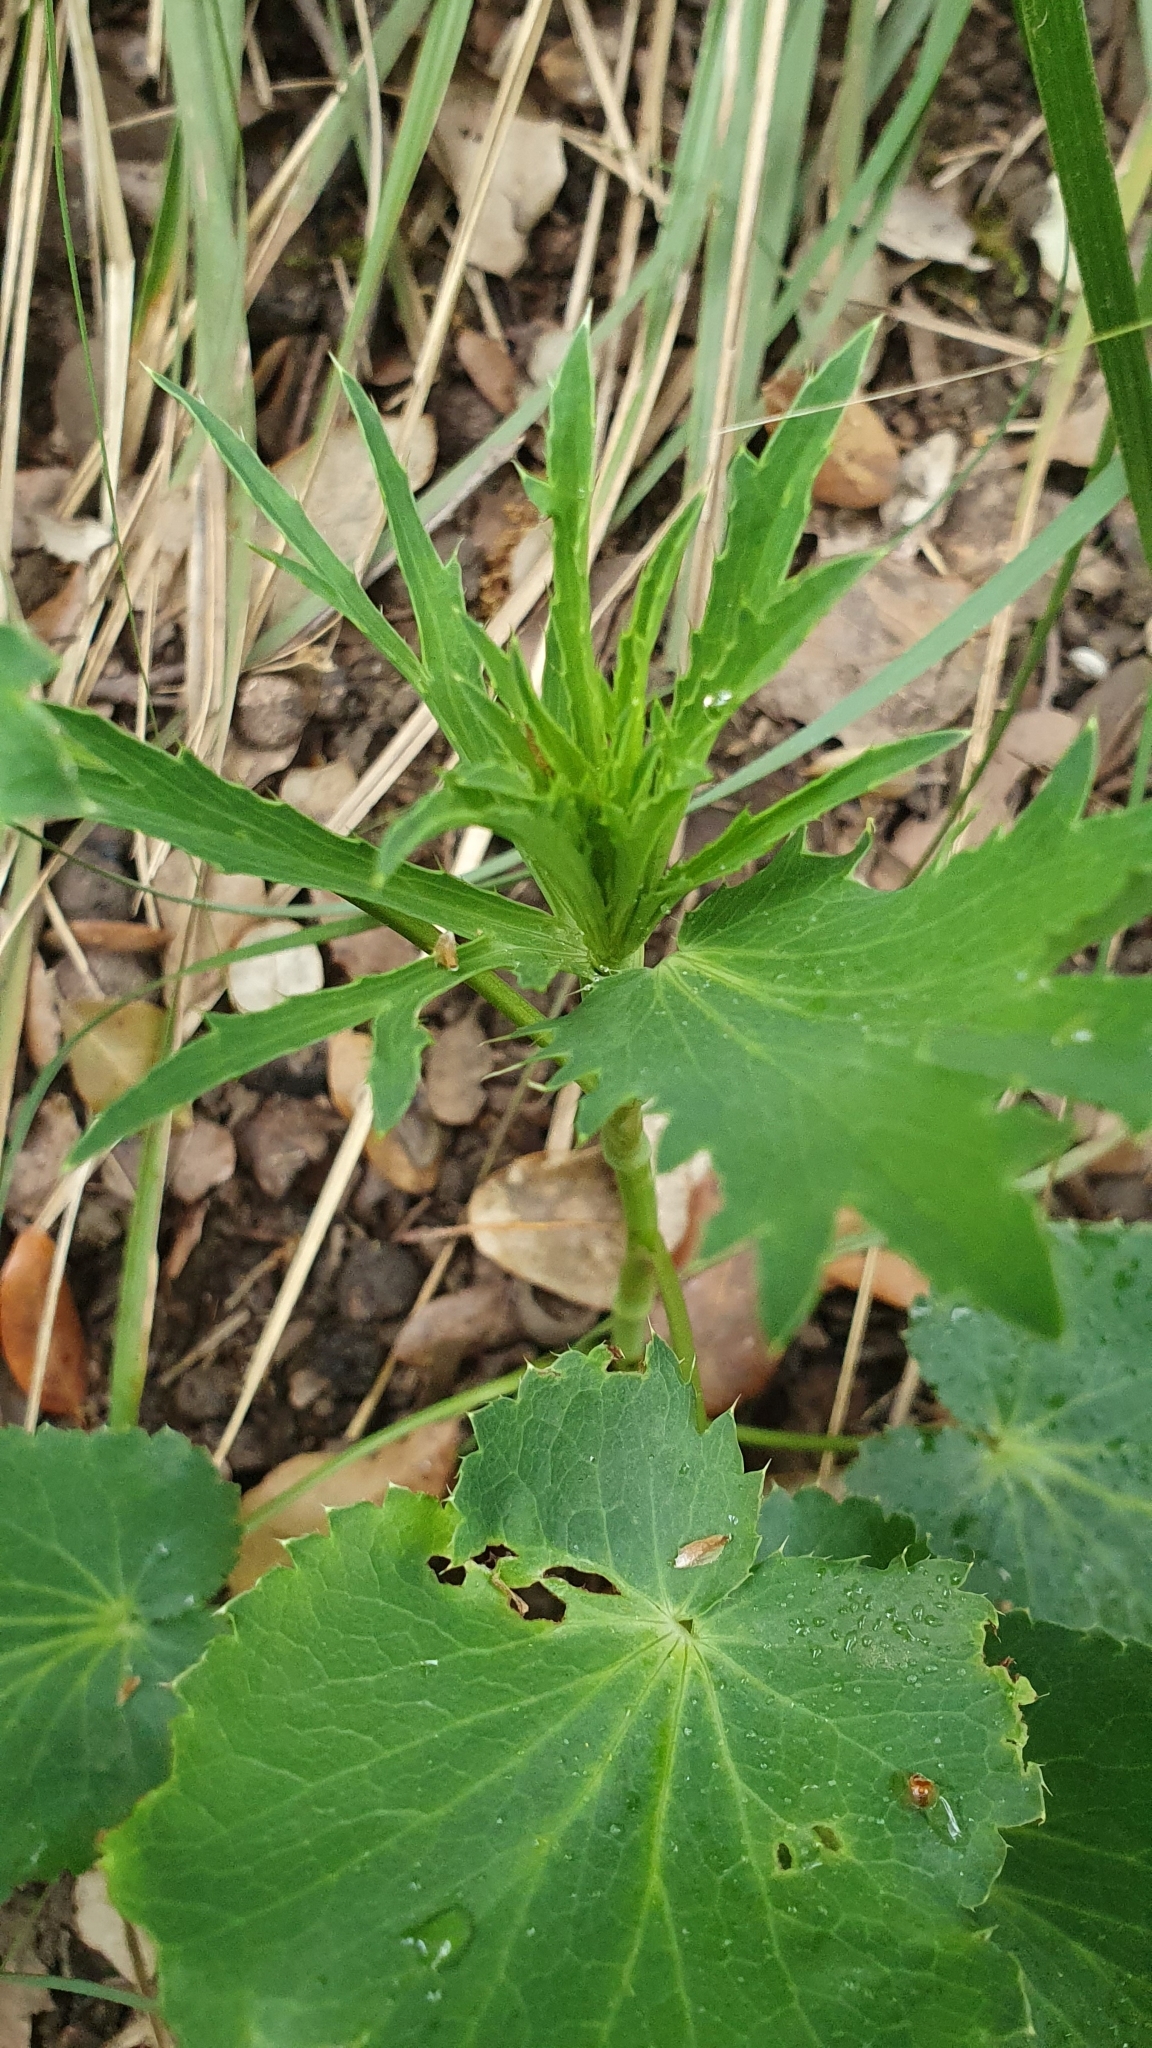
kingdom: Plantae
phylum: Tracheophyta
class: Magnoliopsida
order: Apiales
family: Apiaceae
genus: Eryngium
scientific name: Eryngium tricuspidatum
